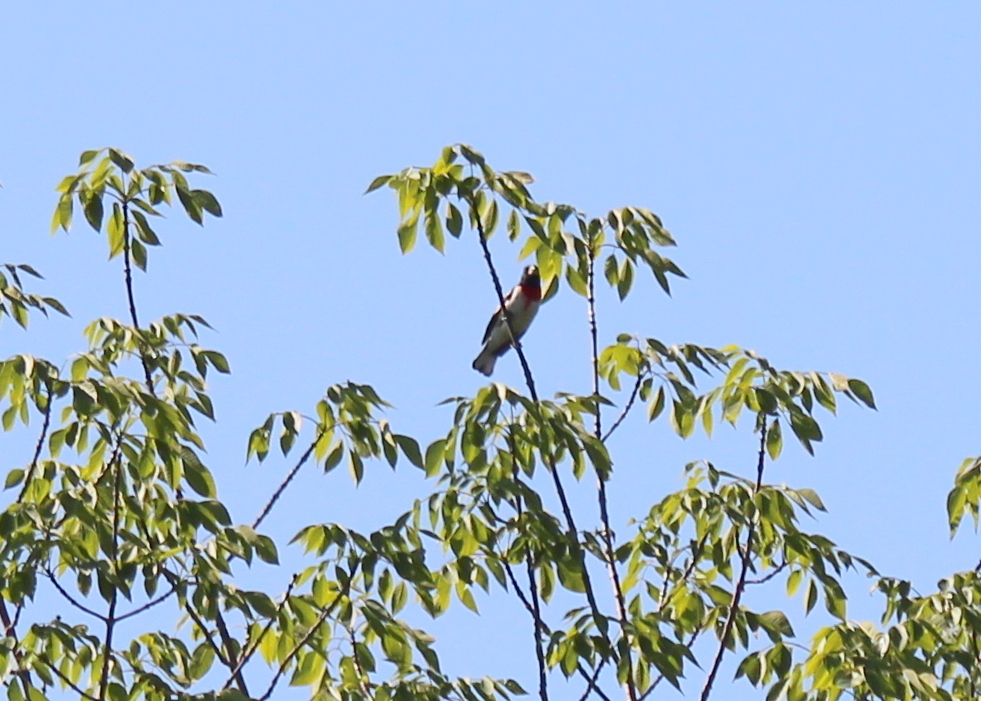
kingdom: Animalia
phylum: Chordata
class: Aves
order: Passeriformes
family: Cardinalidae
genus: Pheucticus
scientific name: Pheucticus ludovicianus
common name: Rose-breasted grosbeak
